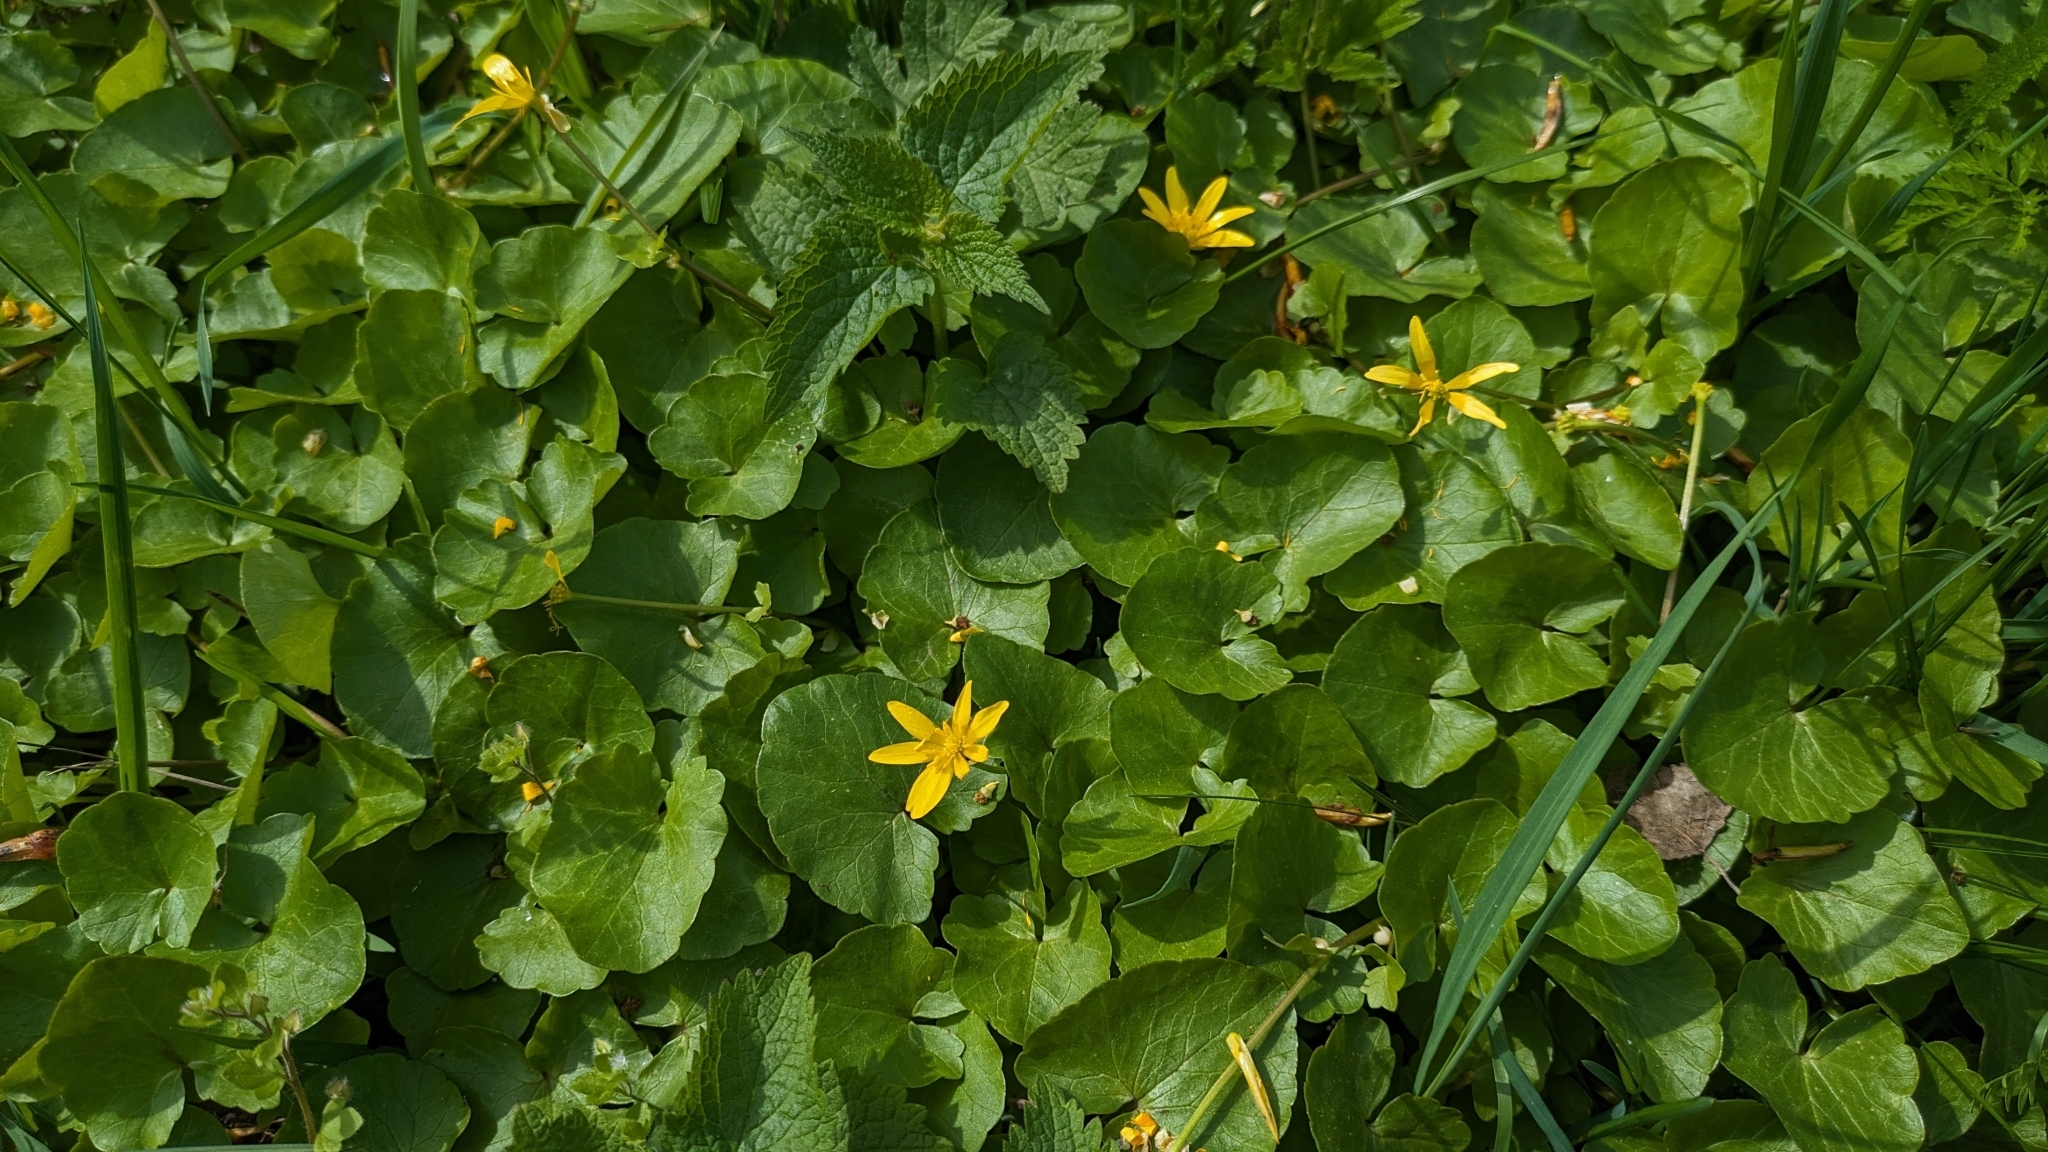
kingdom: Plantae
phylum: Tracheophyta
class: Magnoliopsida
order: Ranunculales
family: Ranunculaceae
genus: Ficaria
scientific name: Ficaria verna
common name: Lesser celandine
